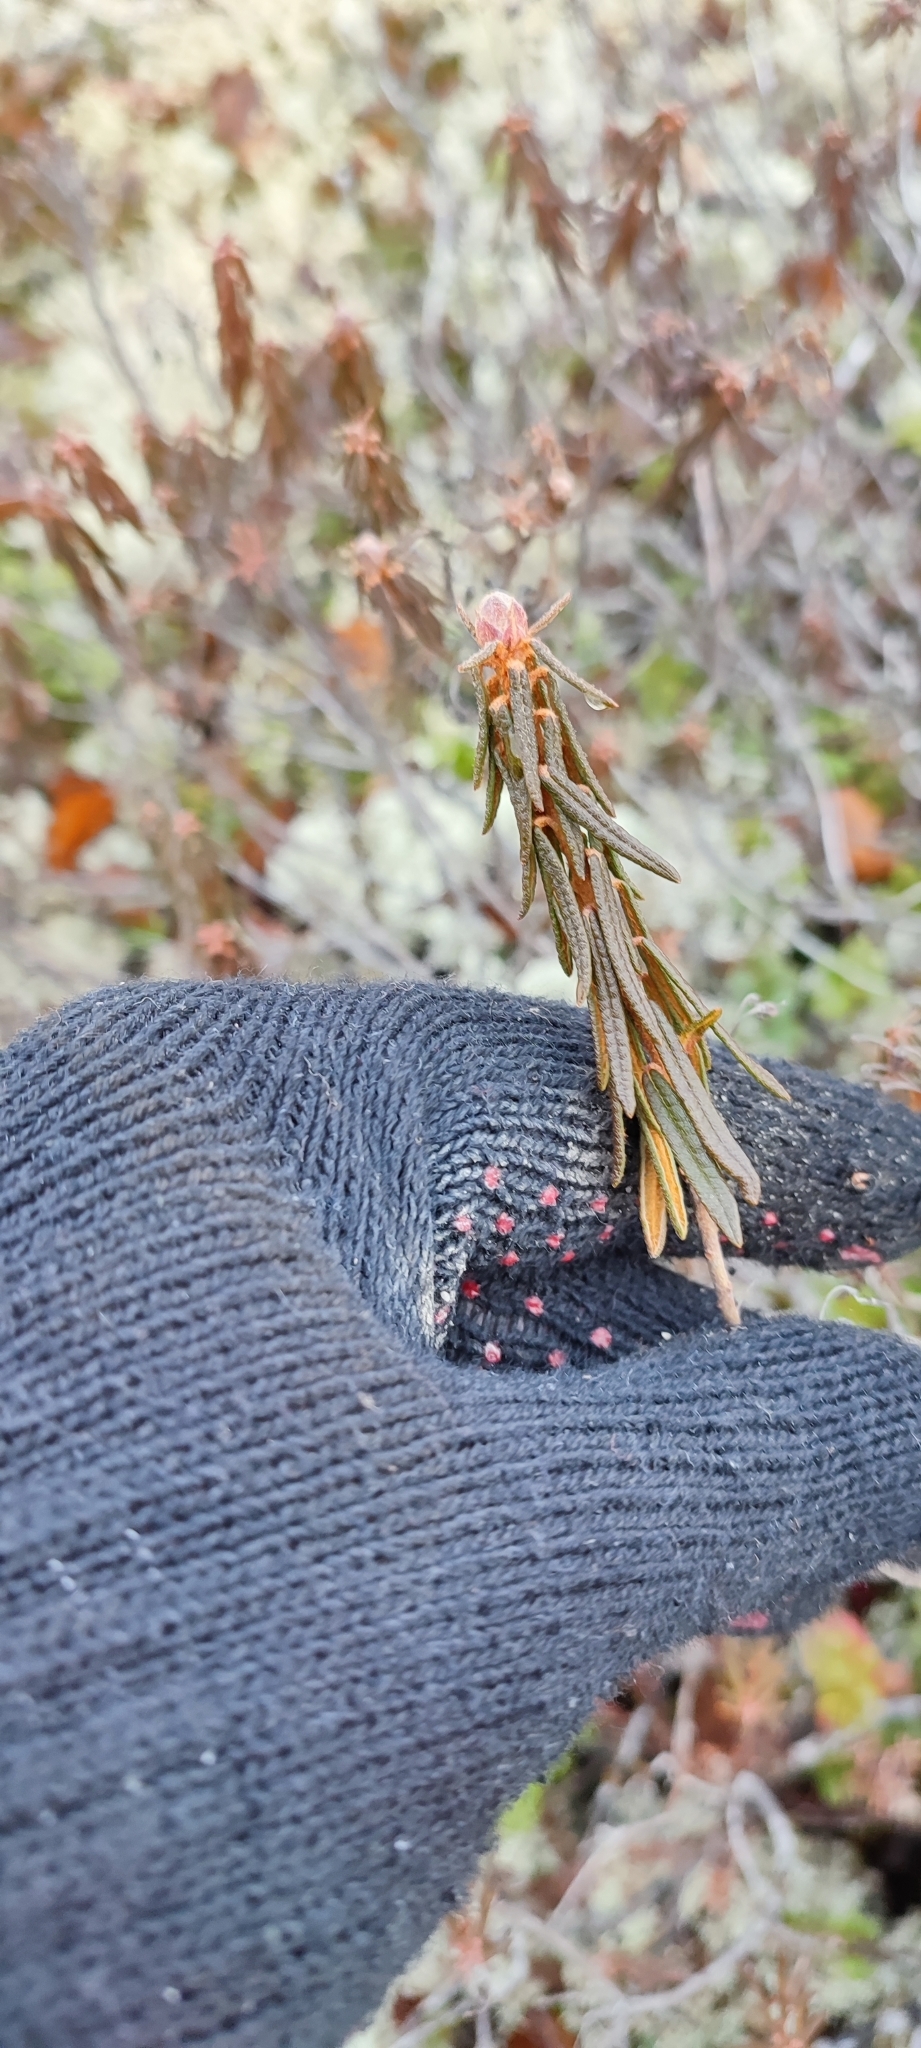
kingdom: Plantae
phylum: Tracheophyta
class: Magnoliopsida
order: Ericales
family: Ericaceae
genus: Rhododendron
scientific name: Rhododendron tomentosum
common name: Marsh labrador tea
